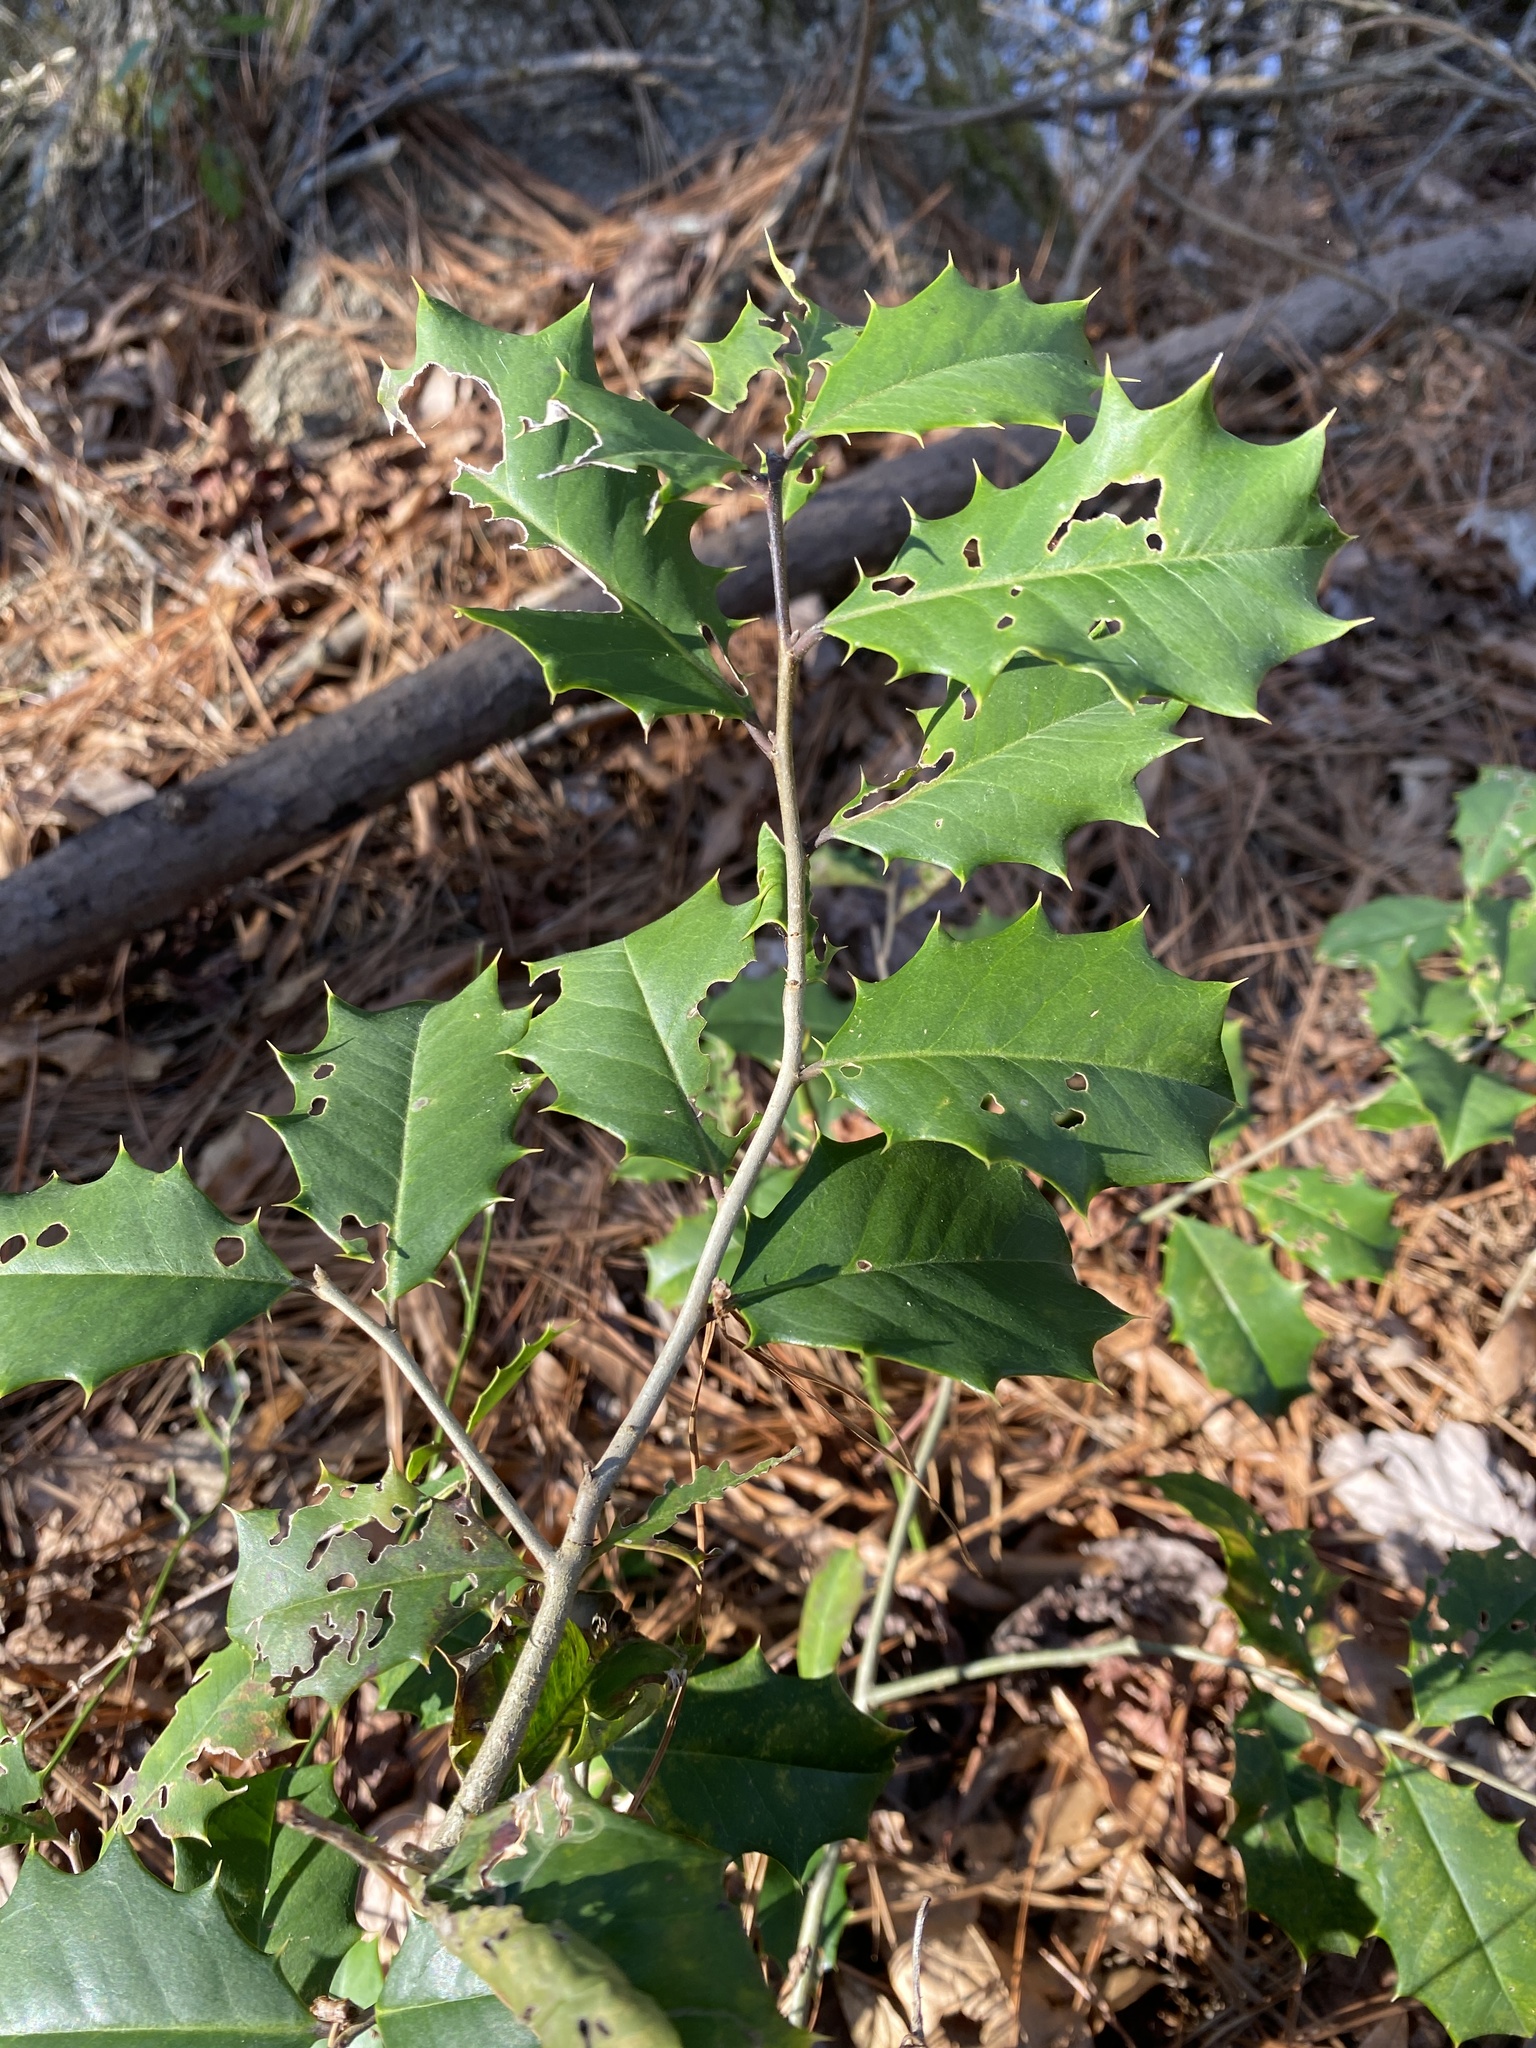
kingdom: Plantae
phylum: Tracheophyta
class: Magnoliopsida
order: Aquifoliales
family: Aquifoliaceae
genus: Ilex
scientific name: Ilex opaca
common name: American holly
